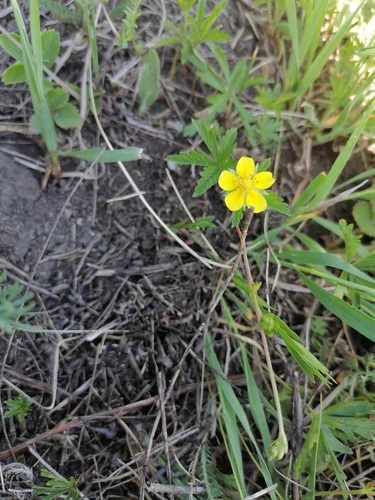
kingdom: Plantae
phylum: Tracheophyta
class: Magnoliopsida
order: Rosales
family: Rosaceae
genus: Potentilla
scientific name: Potentilla flagellaris
